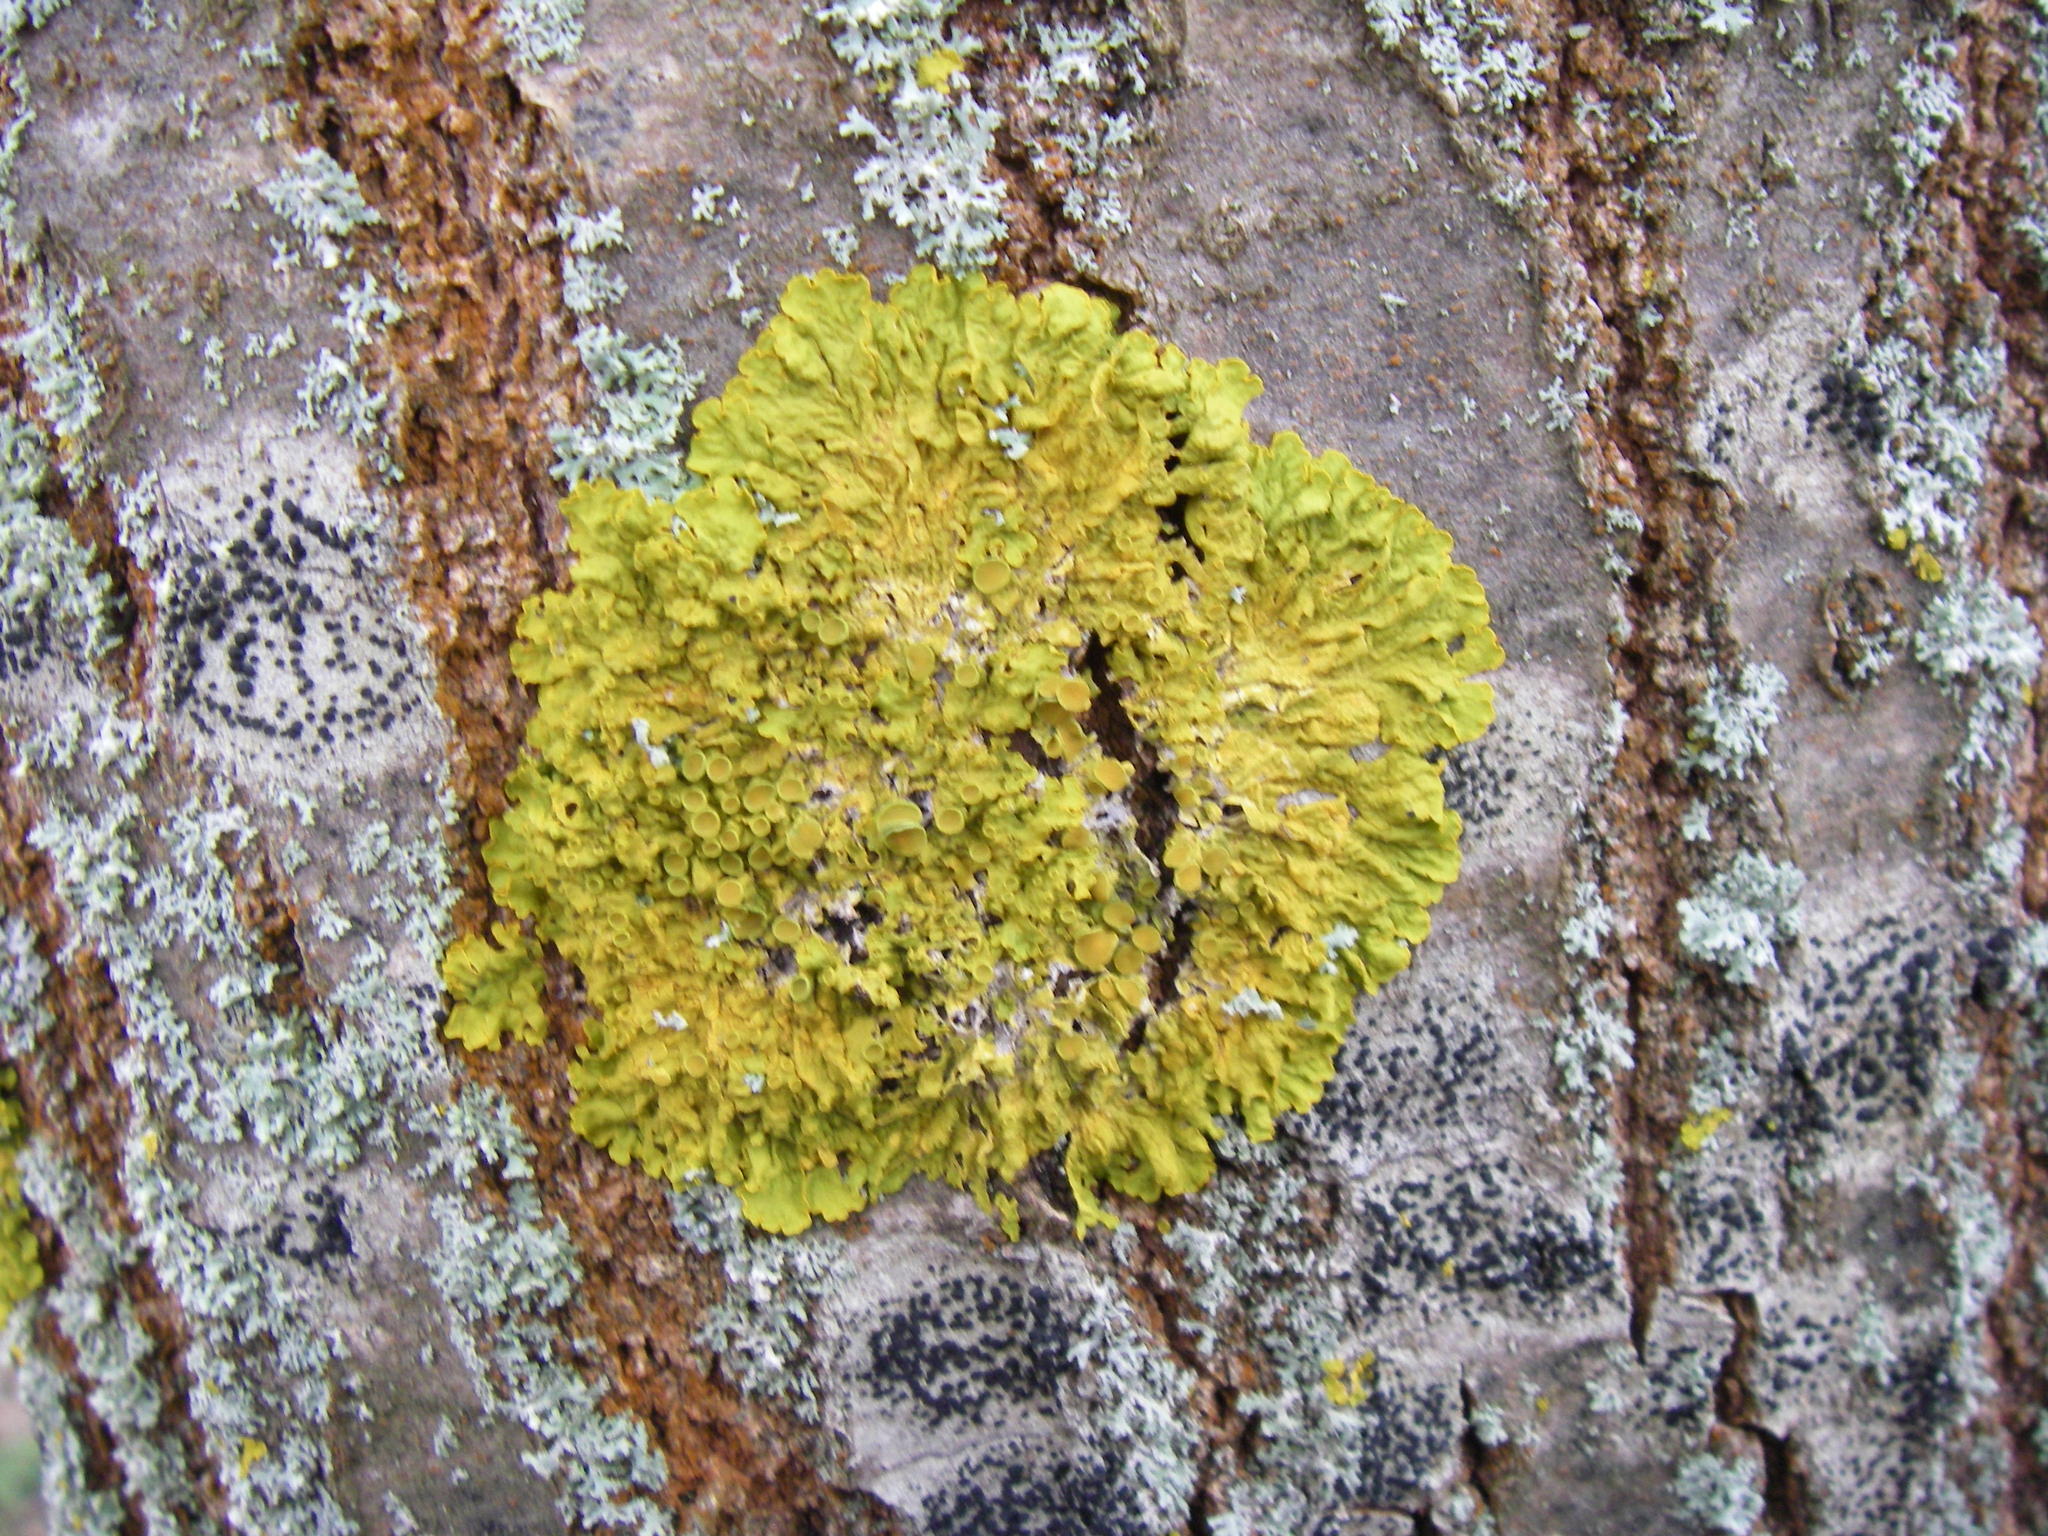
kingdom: Fungi
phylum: Ascomycota
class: Lecanoromycetes
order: Teloschistales
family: Teloschistaceae
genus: Xanthoria
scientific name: Xanthoria parietina
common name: Common orange lichen
